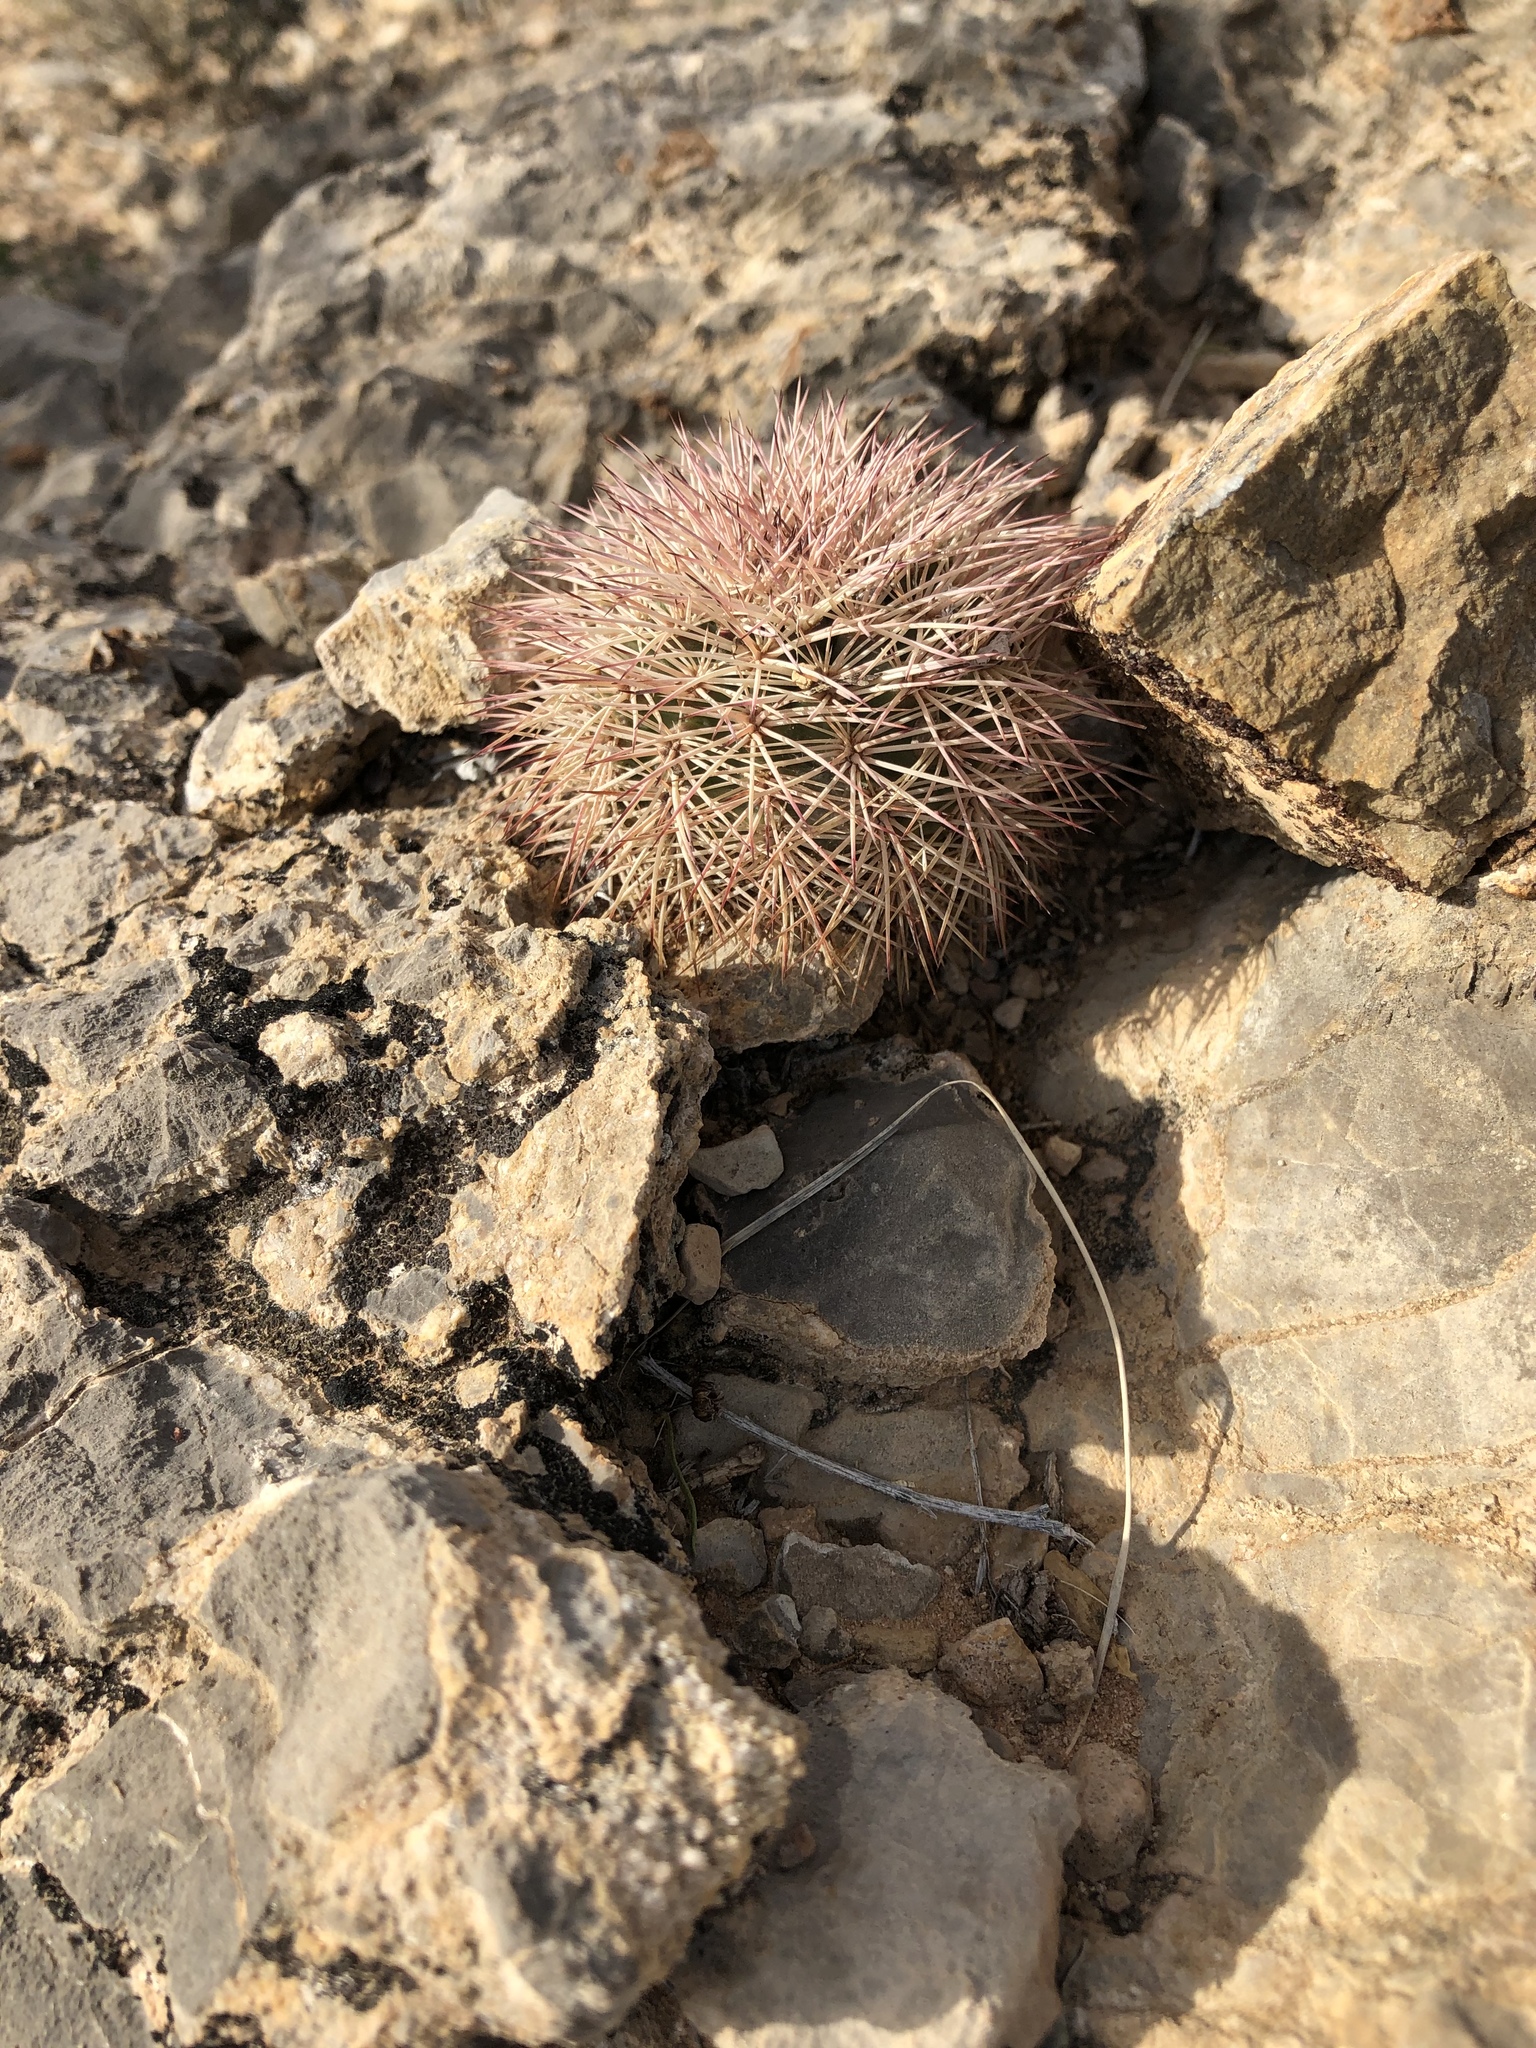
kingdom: Plantae
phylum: Tracheophyta
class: Magnoliopsida
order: Caryophyllales
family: Cactaceae
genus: Echinocereus
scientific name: Echinocereus dasyacanthus
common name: Spiny hedgehog cactus
